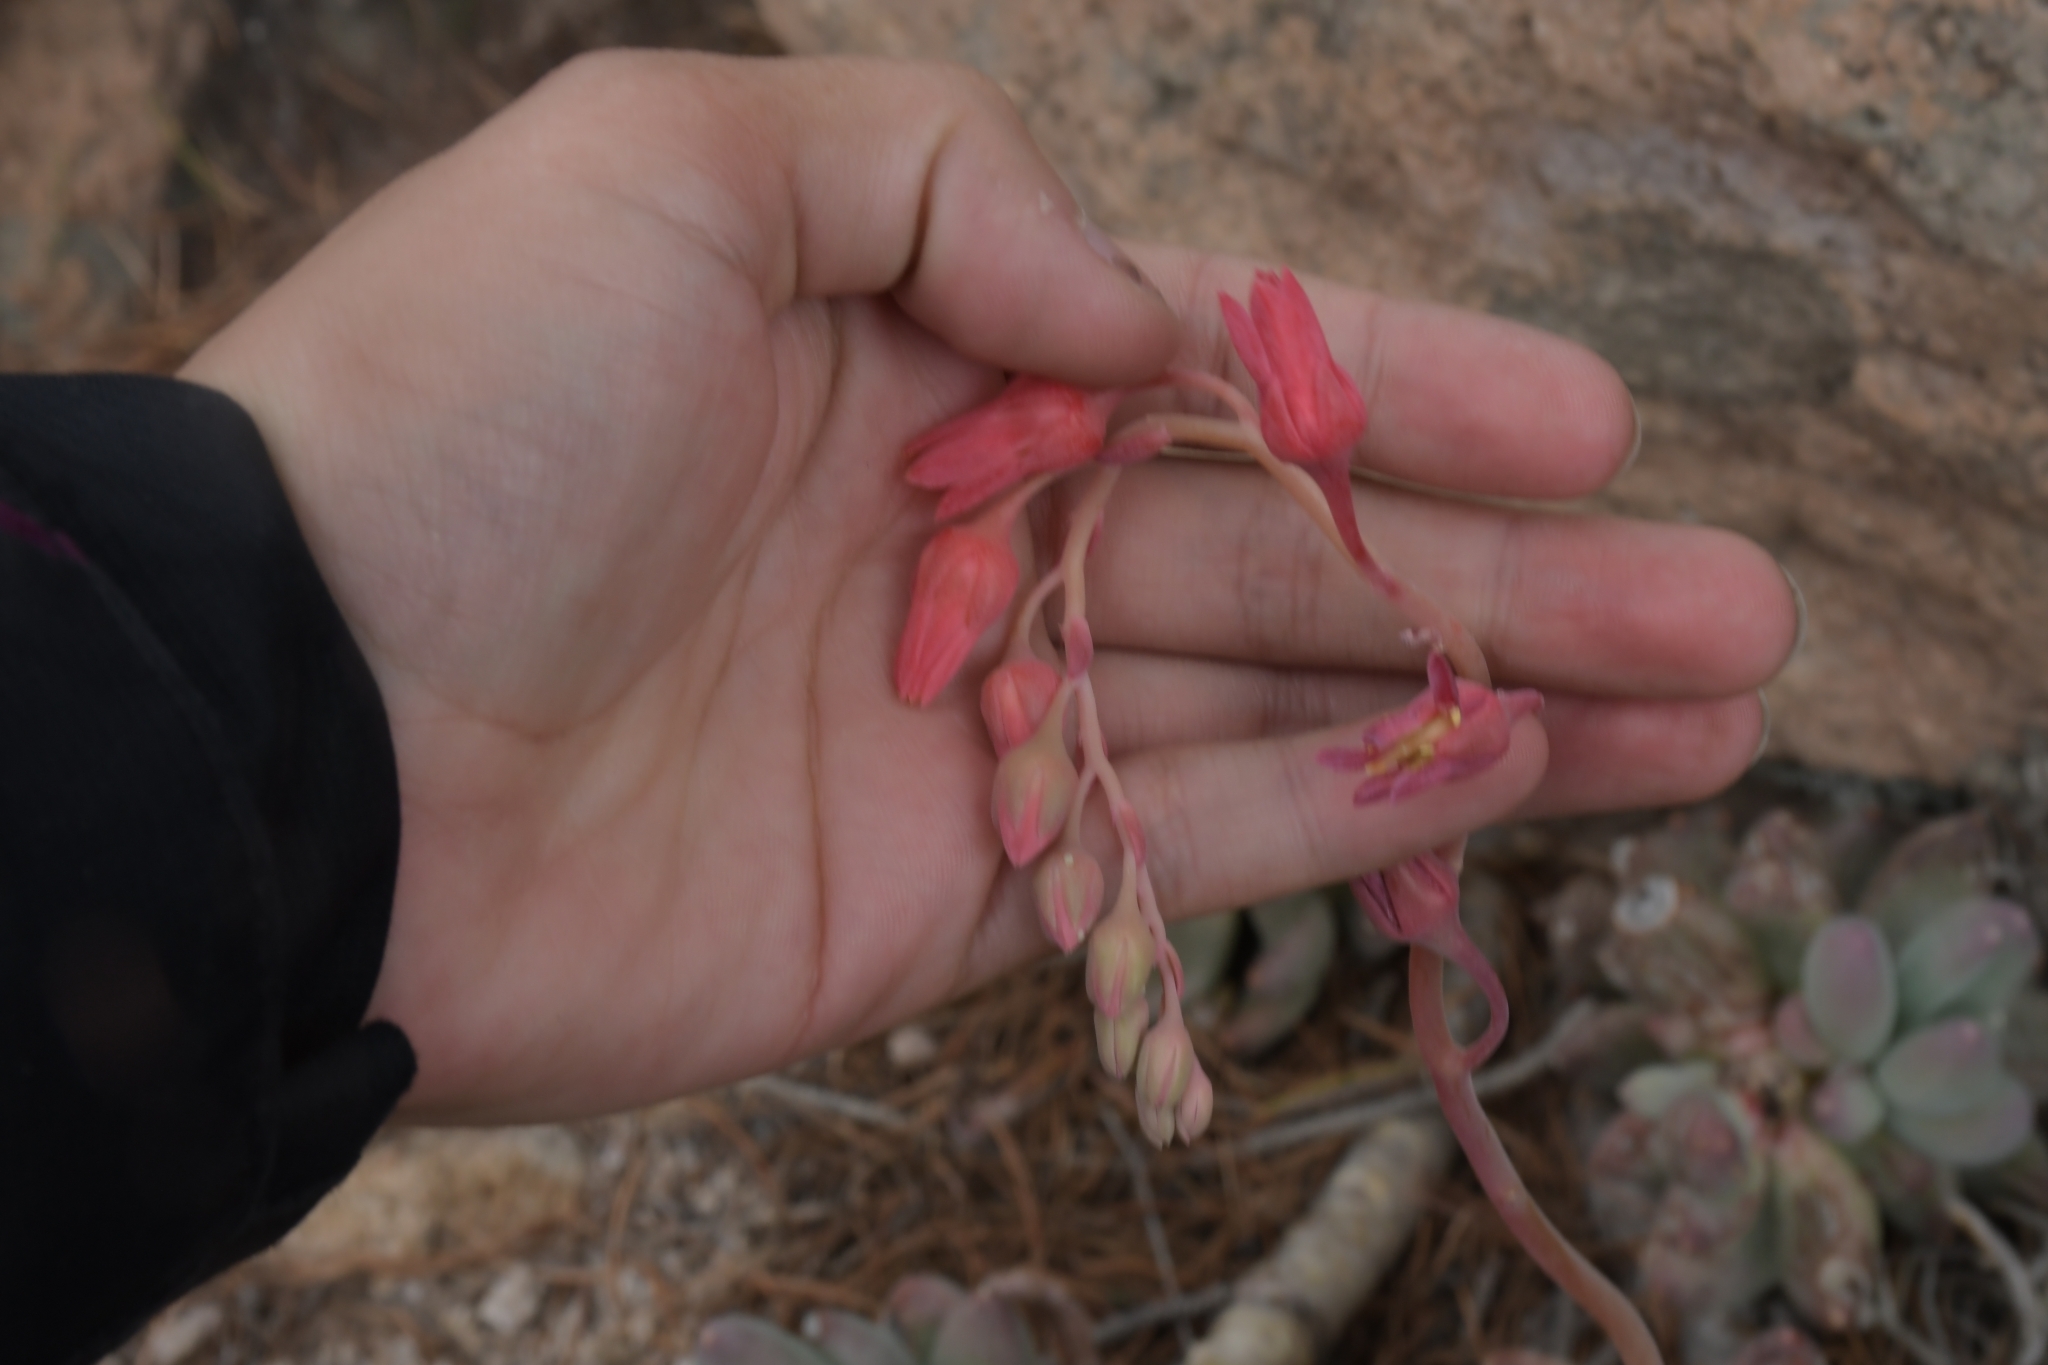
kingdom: Plantae
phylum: Tracheophyta
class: Magnoliopsida
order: Saxifragales
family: Crassulaceae
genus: Pachyphytum
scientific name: Pachyphytum hookeri
